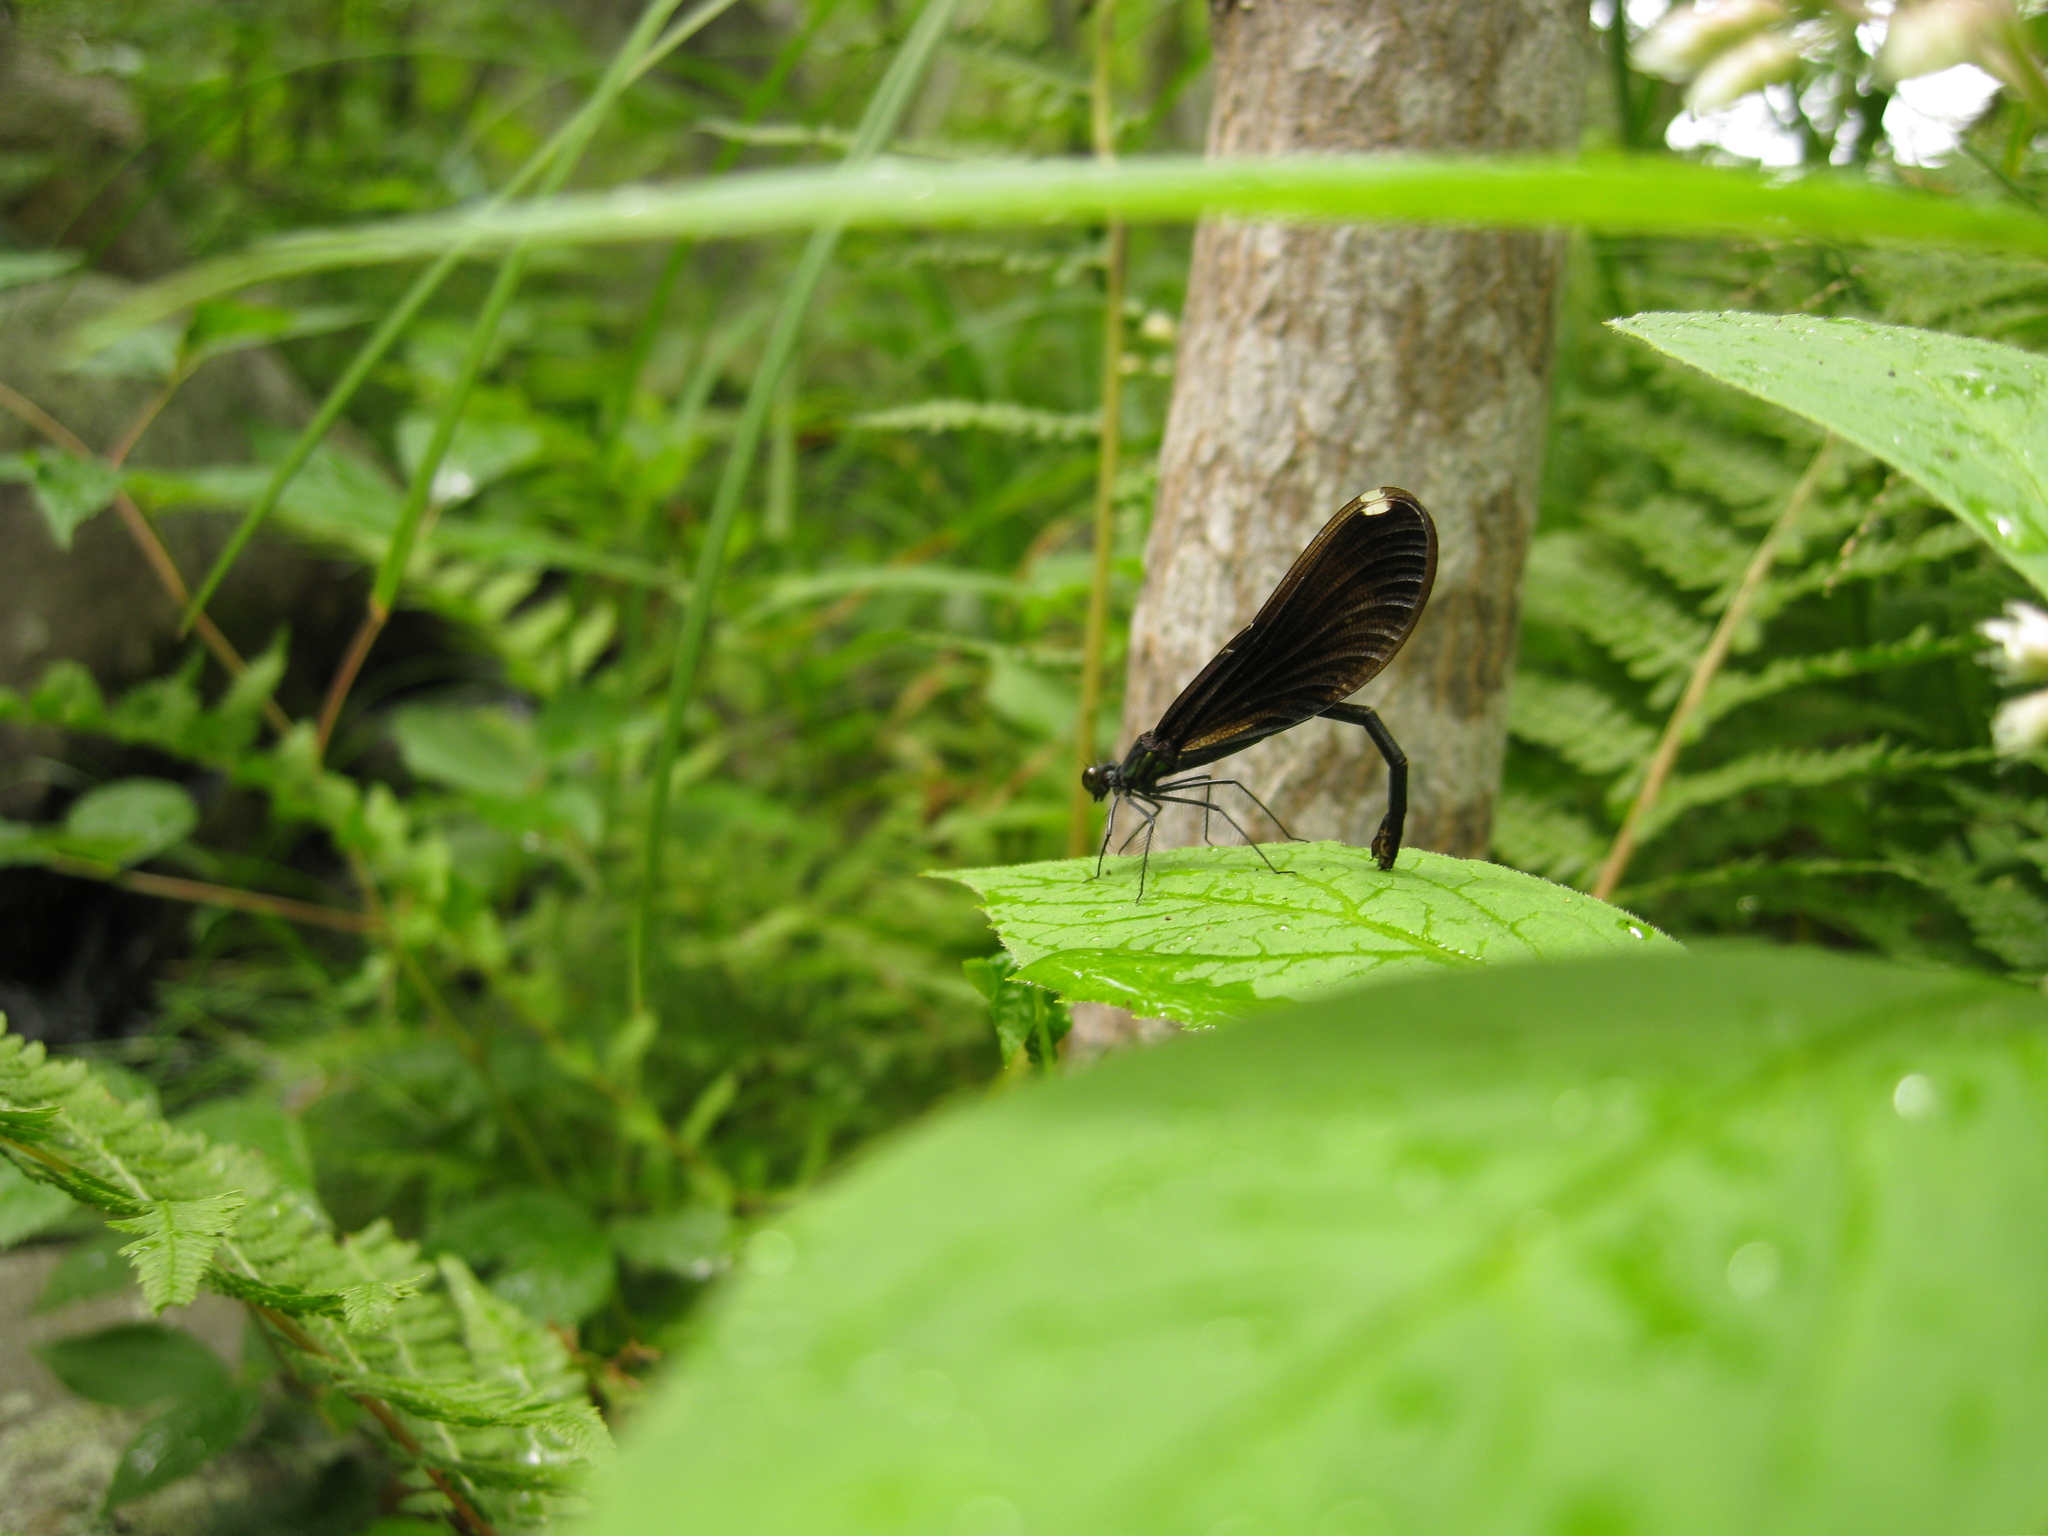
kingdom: Animalia
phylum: Arthropoda
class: Insecta
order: Odonata
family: Calopterygidae
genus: Calopteryx
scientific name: Calopteryx maculata
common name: Ebony jewelwing
